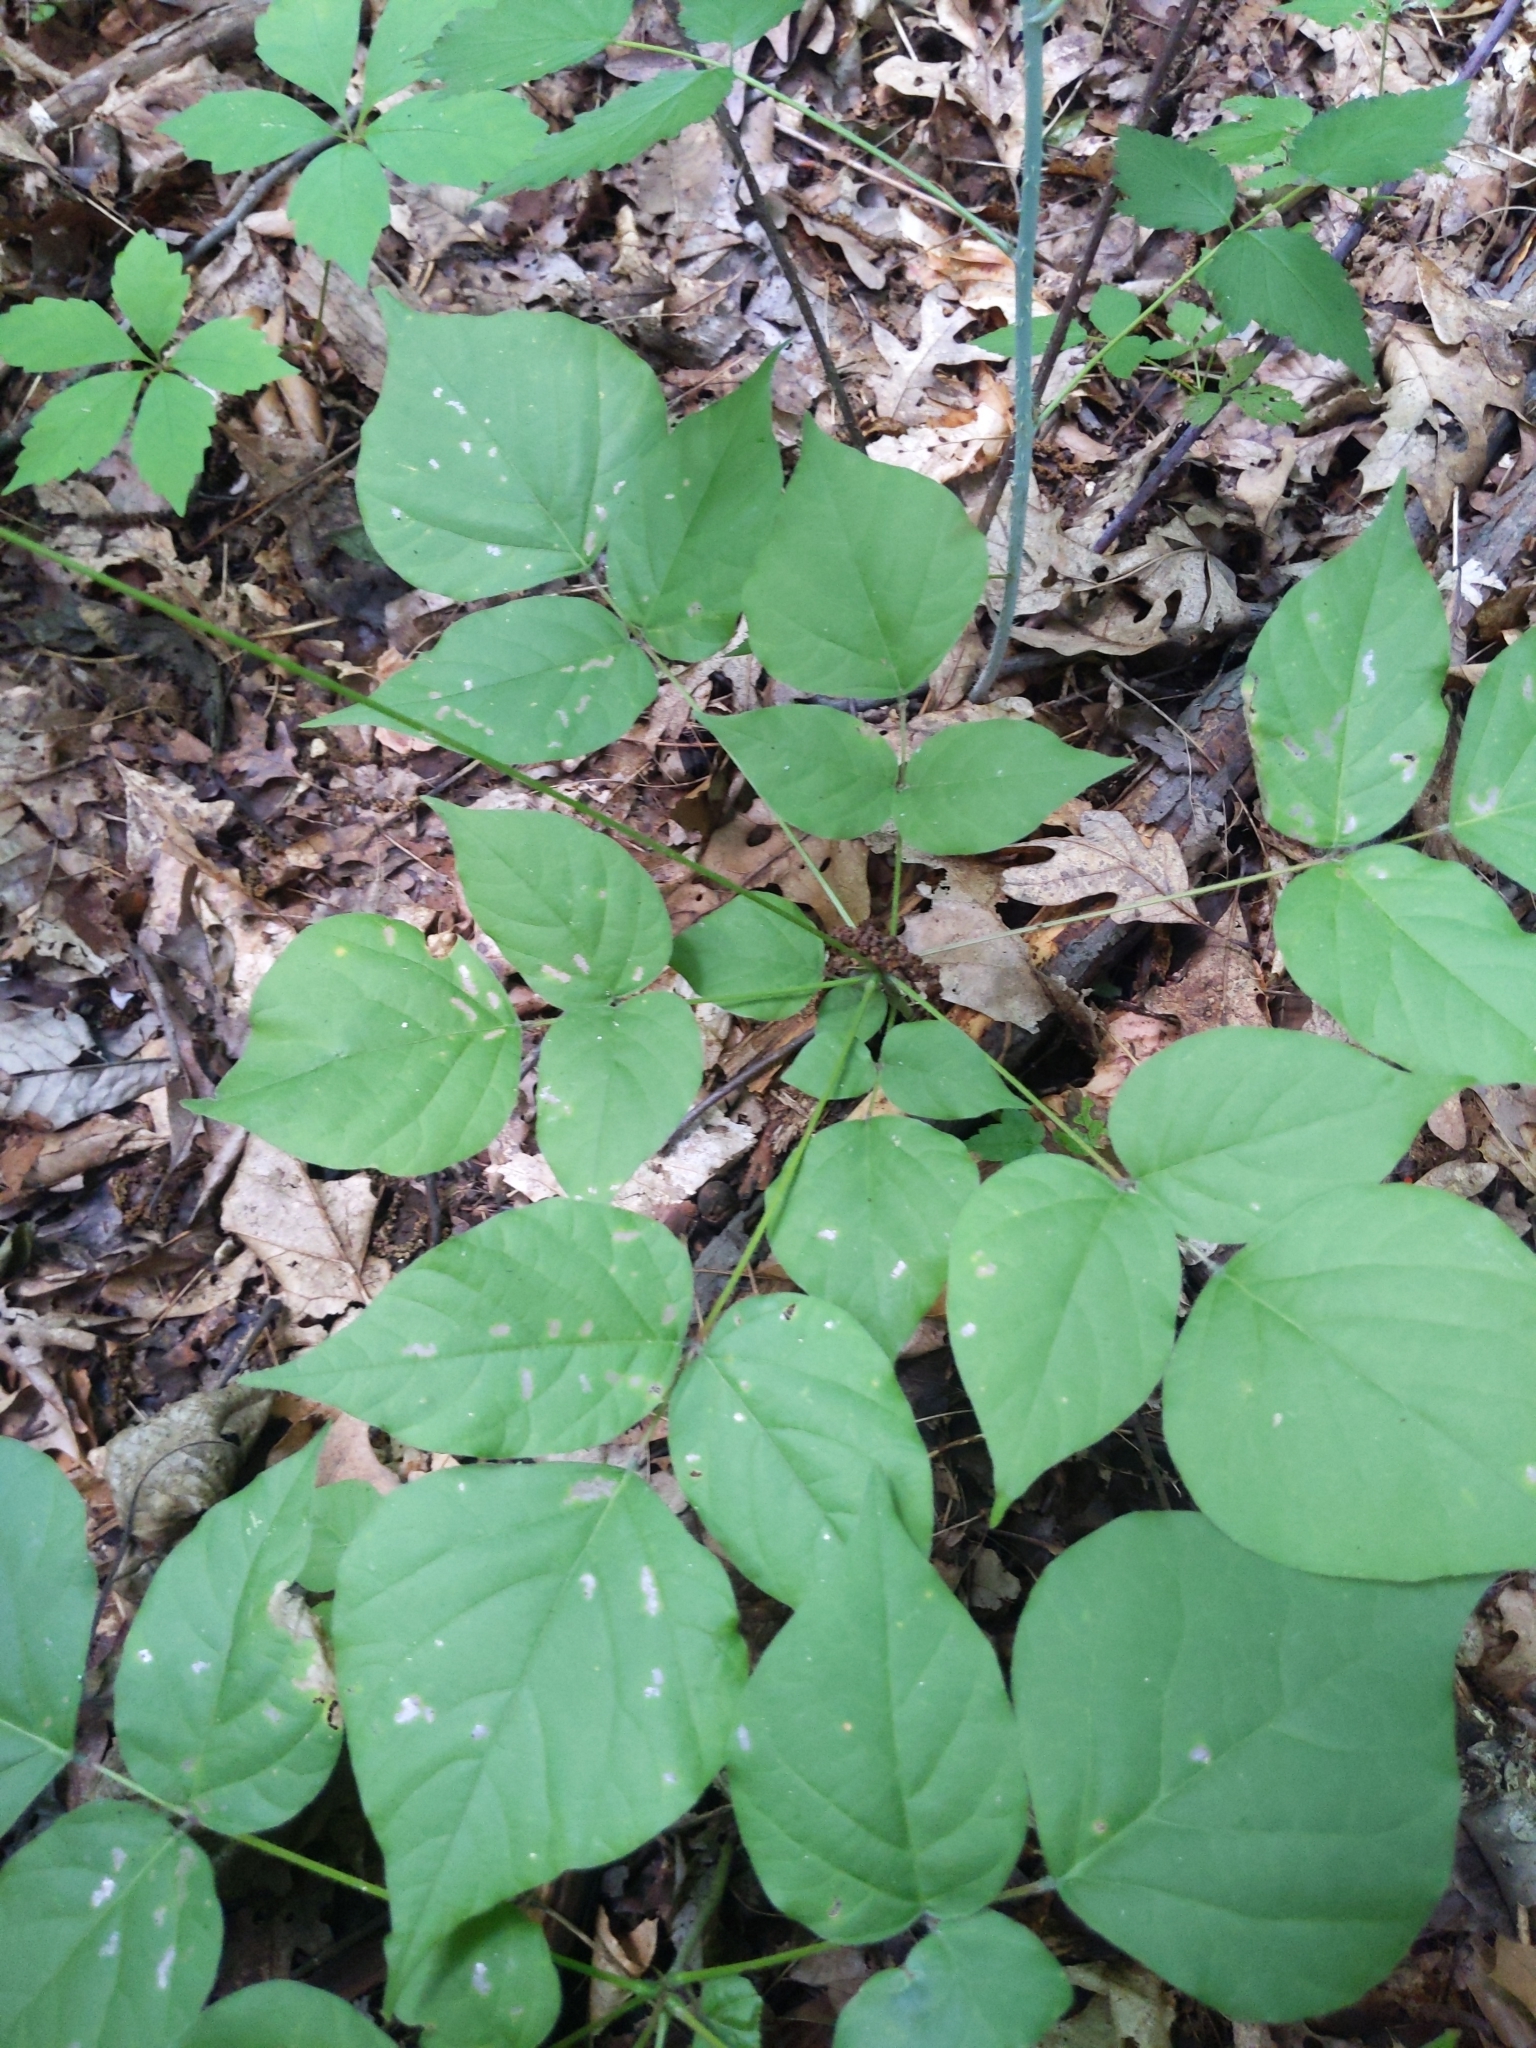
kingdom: Plantae
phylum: Tracheophyta
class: Magnoliopsida
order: Fabales
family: Fabaceae
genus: Hylodesmum
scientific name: Hylodesmum glutinosum
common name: Clustered-leaved tick-trefoil
